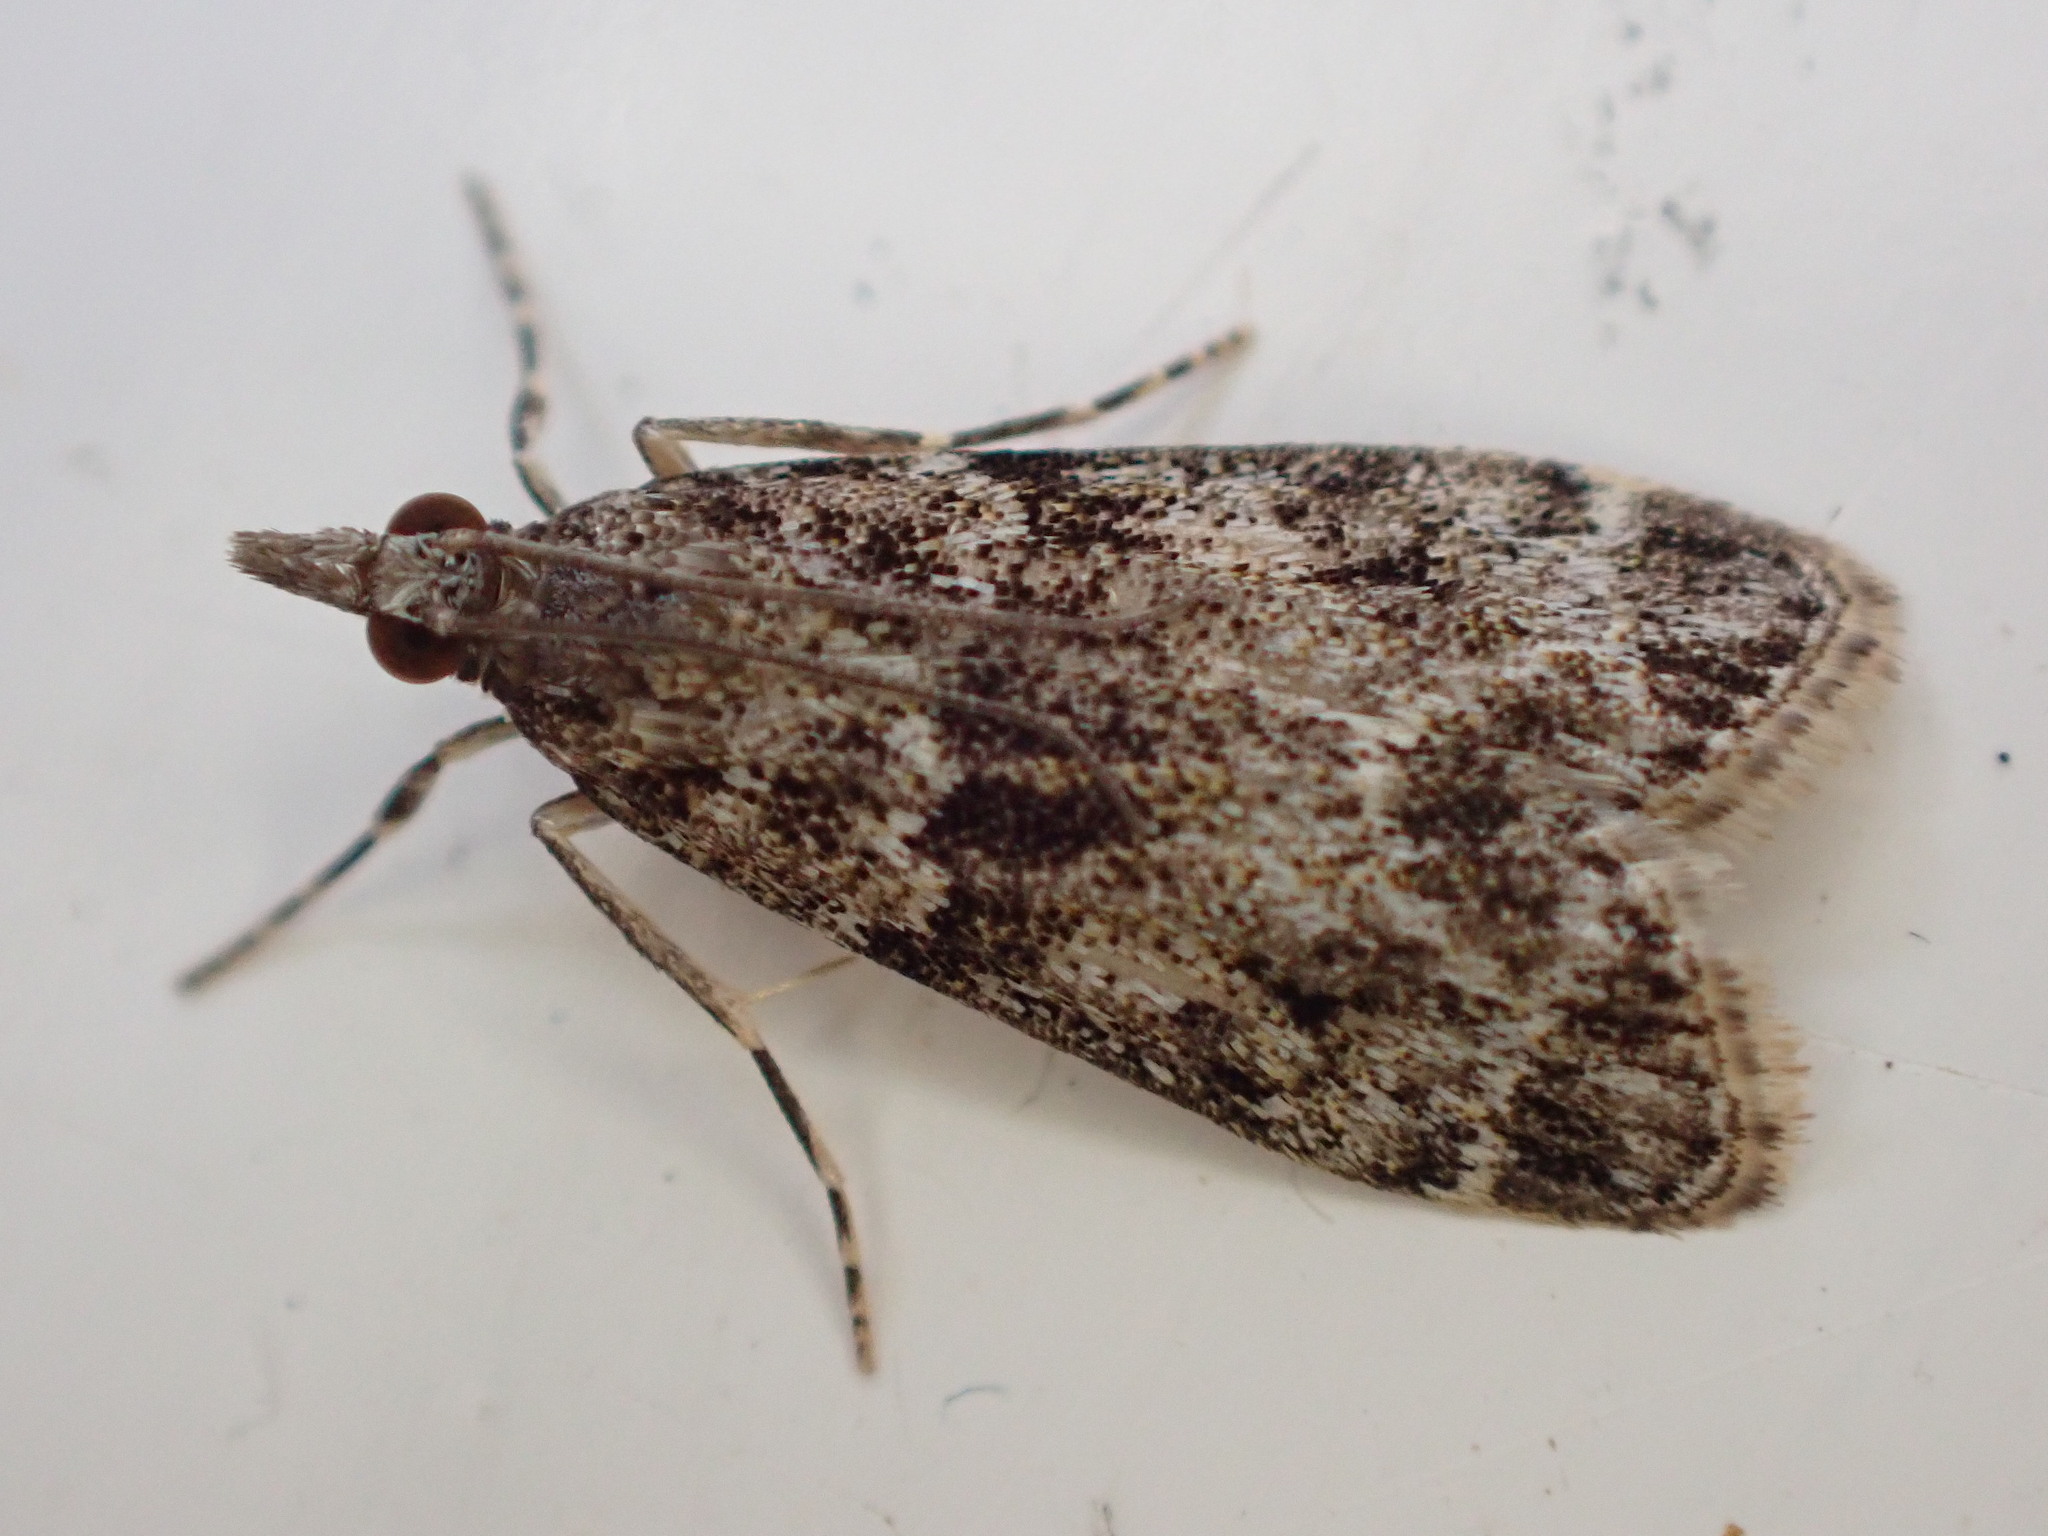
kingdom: Animalia
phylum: Arthropoda
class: Insecta
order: Lepidoptera
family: Crambidae
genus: Eudonia
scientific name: Eudonia mercurella
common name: Small grey
